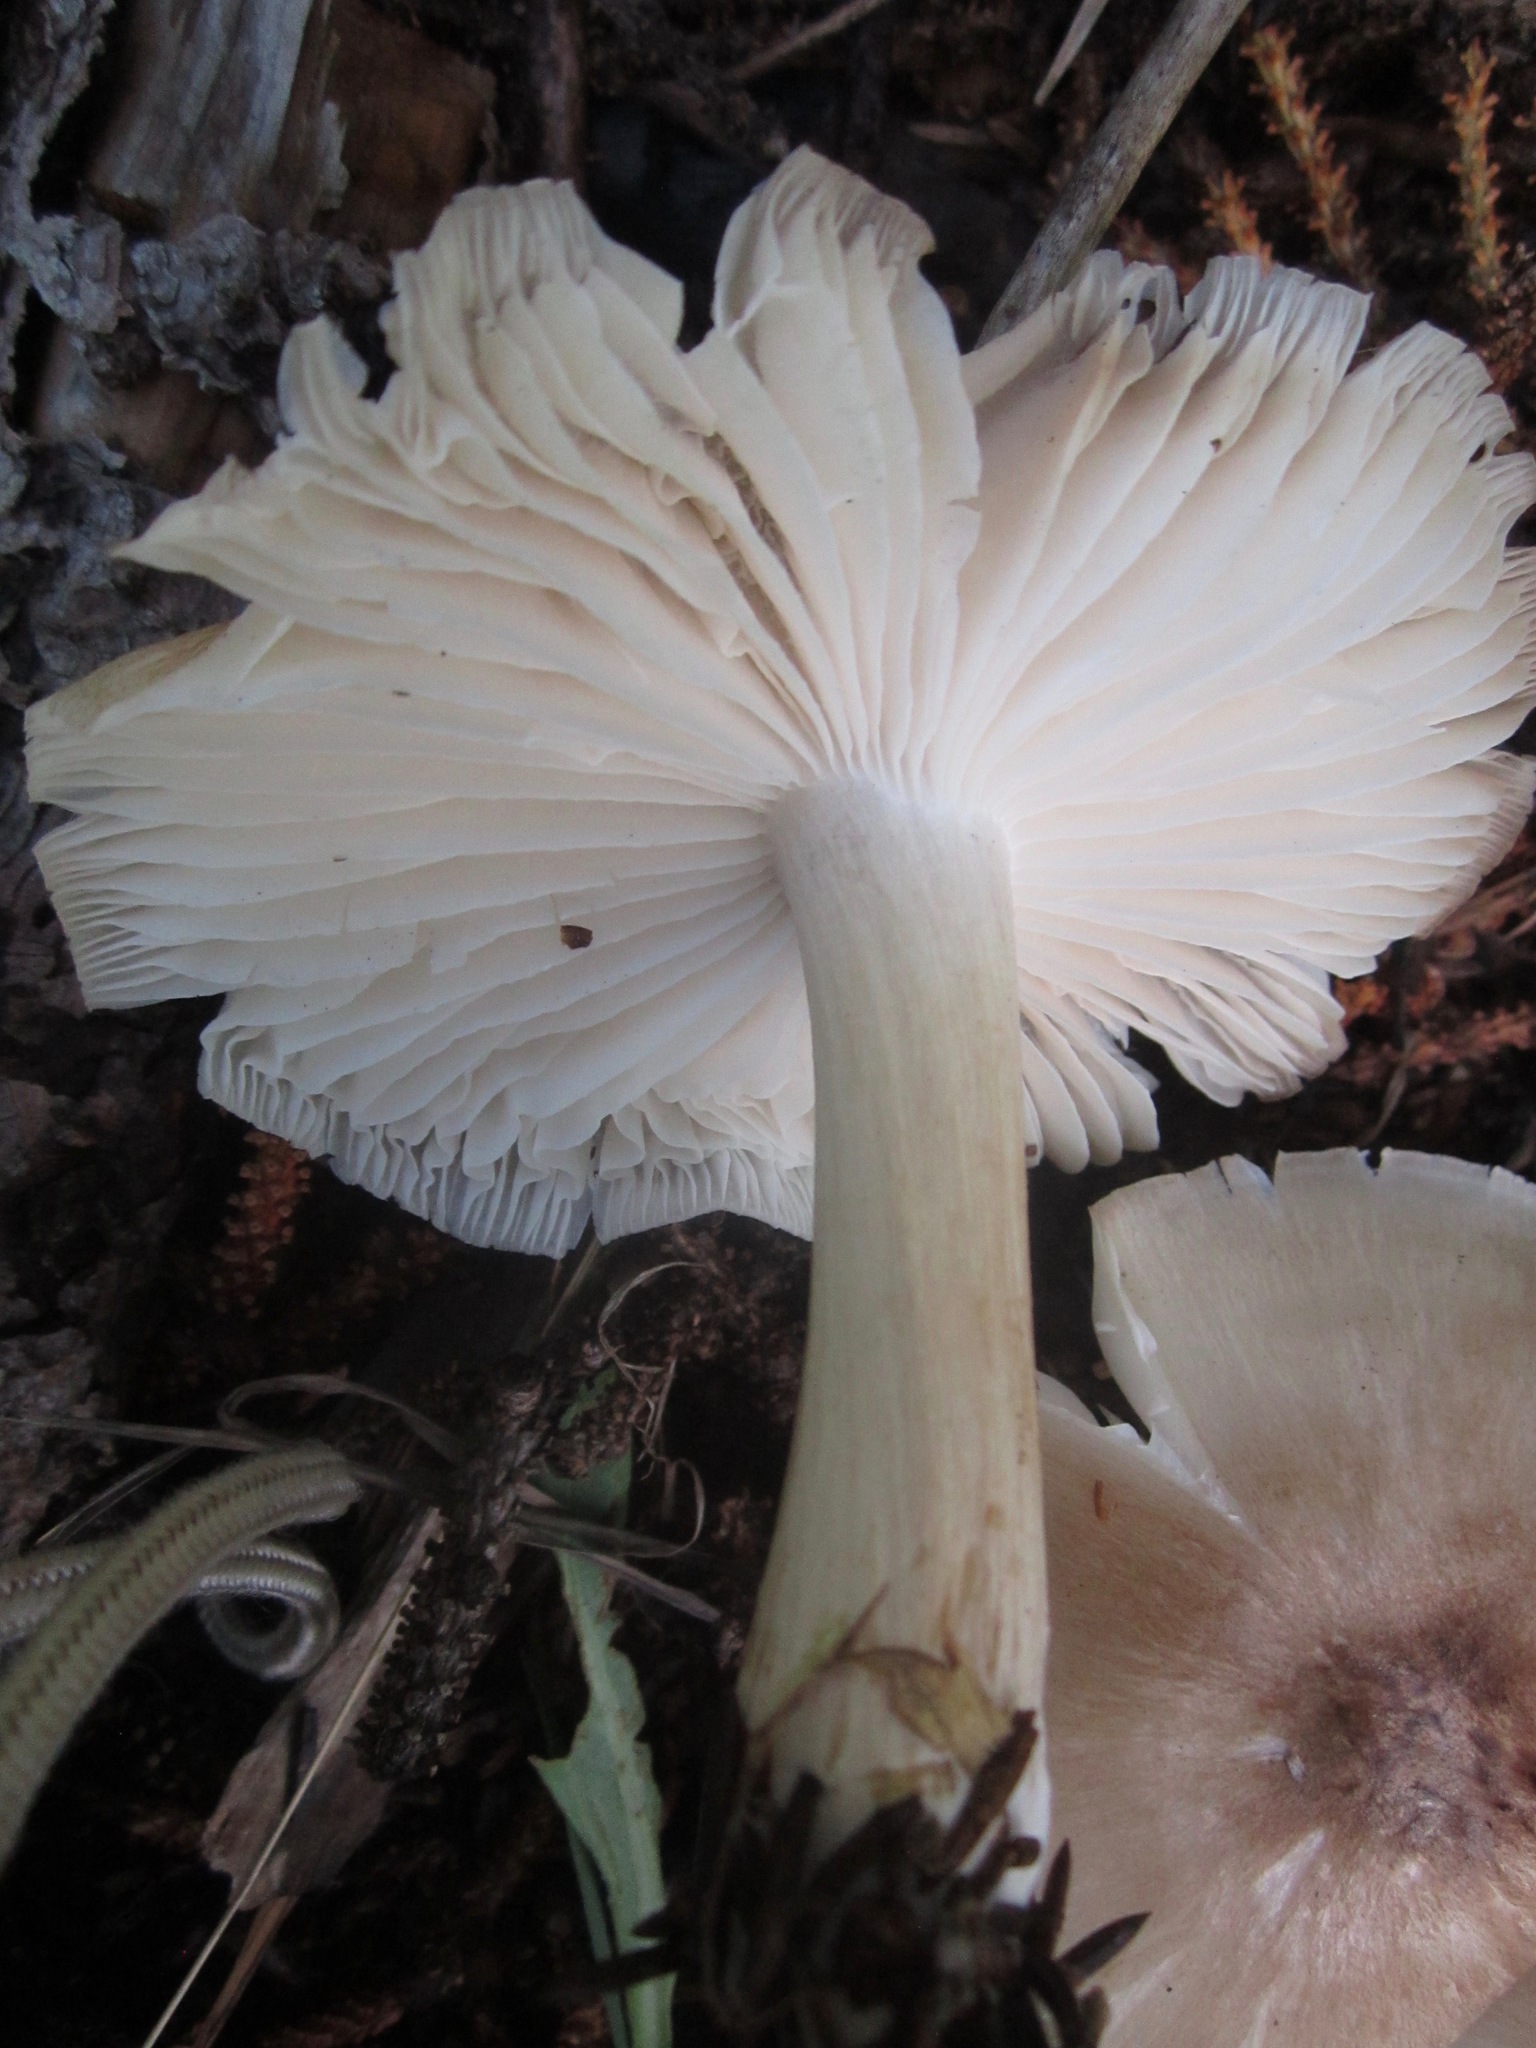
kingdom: Fungi
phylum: Basidiomycota
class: Agaricomycetes
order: Agaricales
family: Tricholomataceae
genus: Megacollybia
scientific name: Megacollybia fallax
